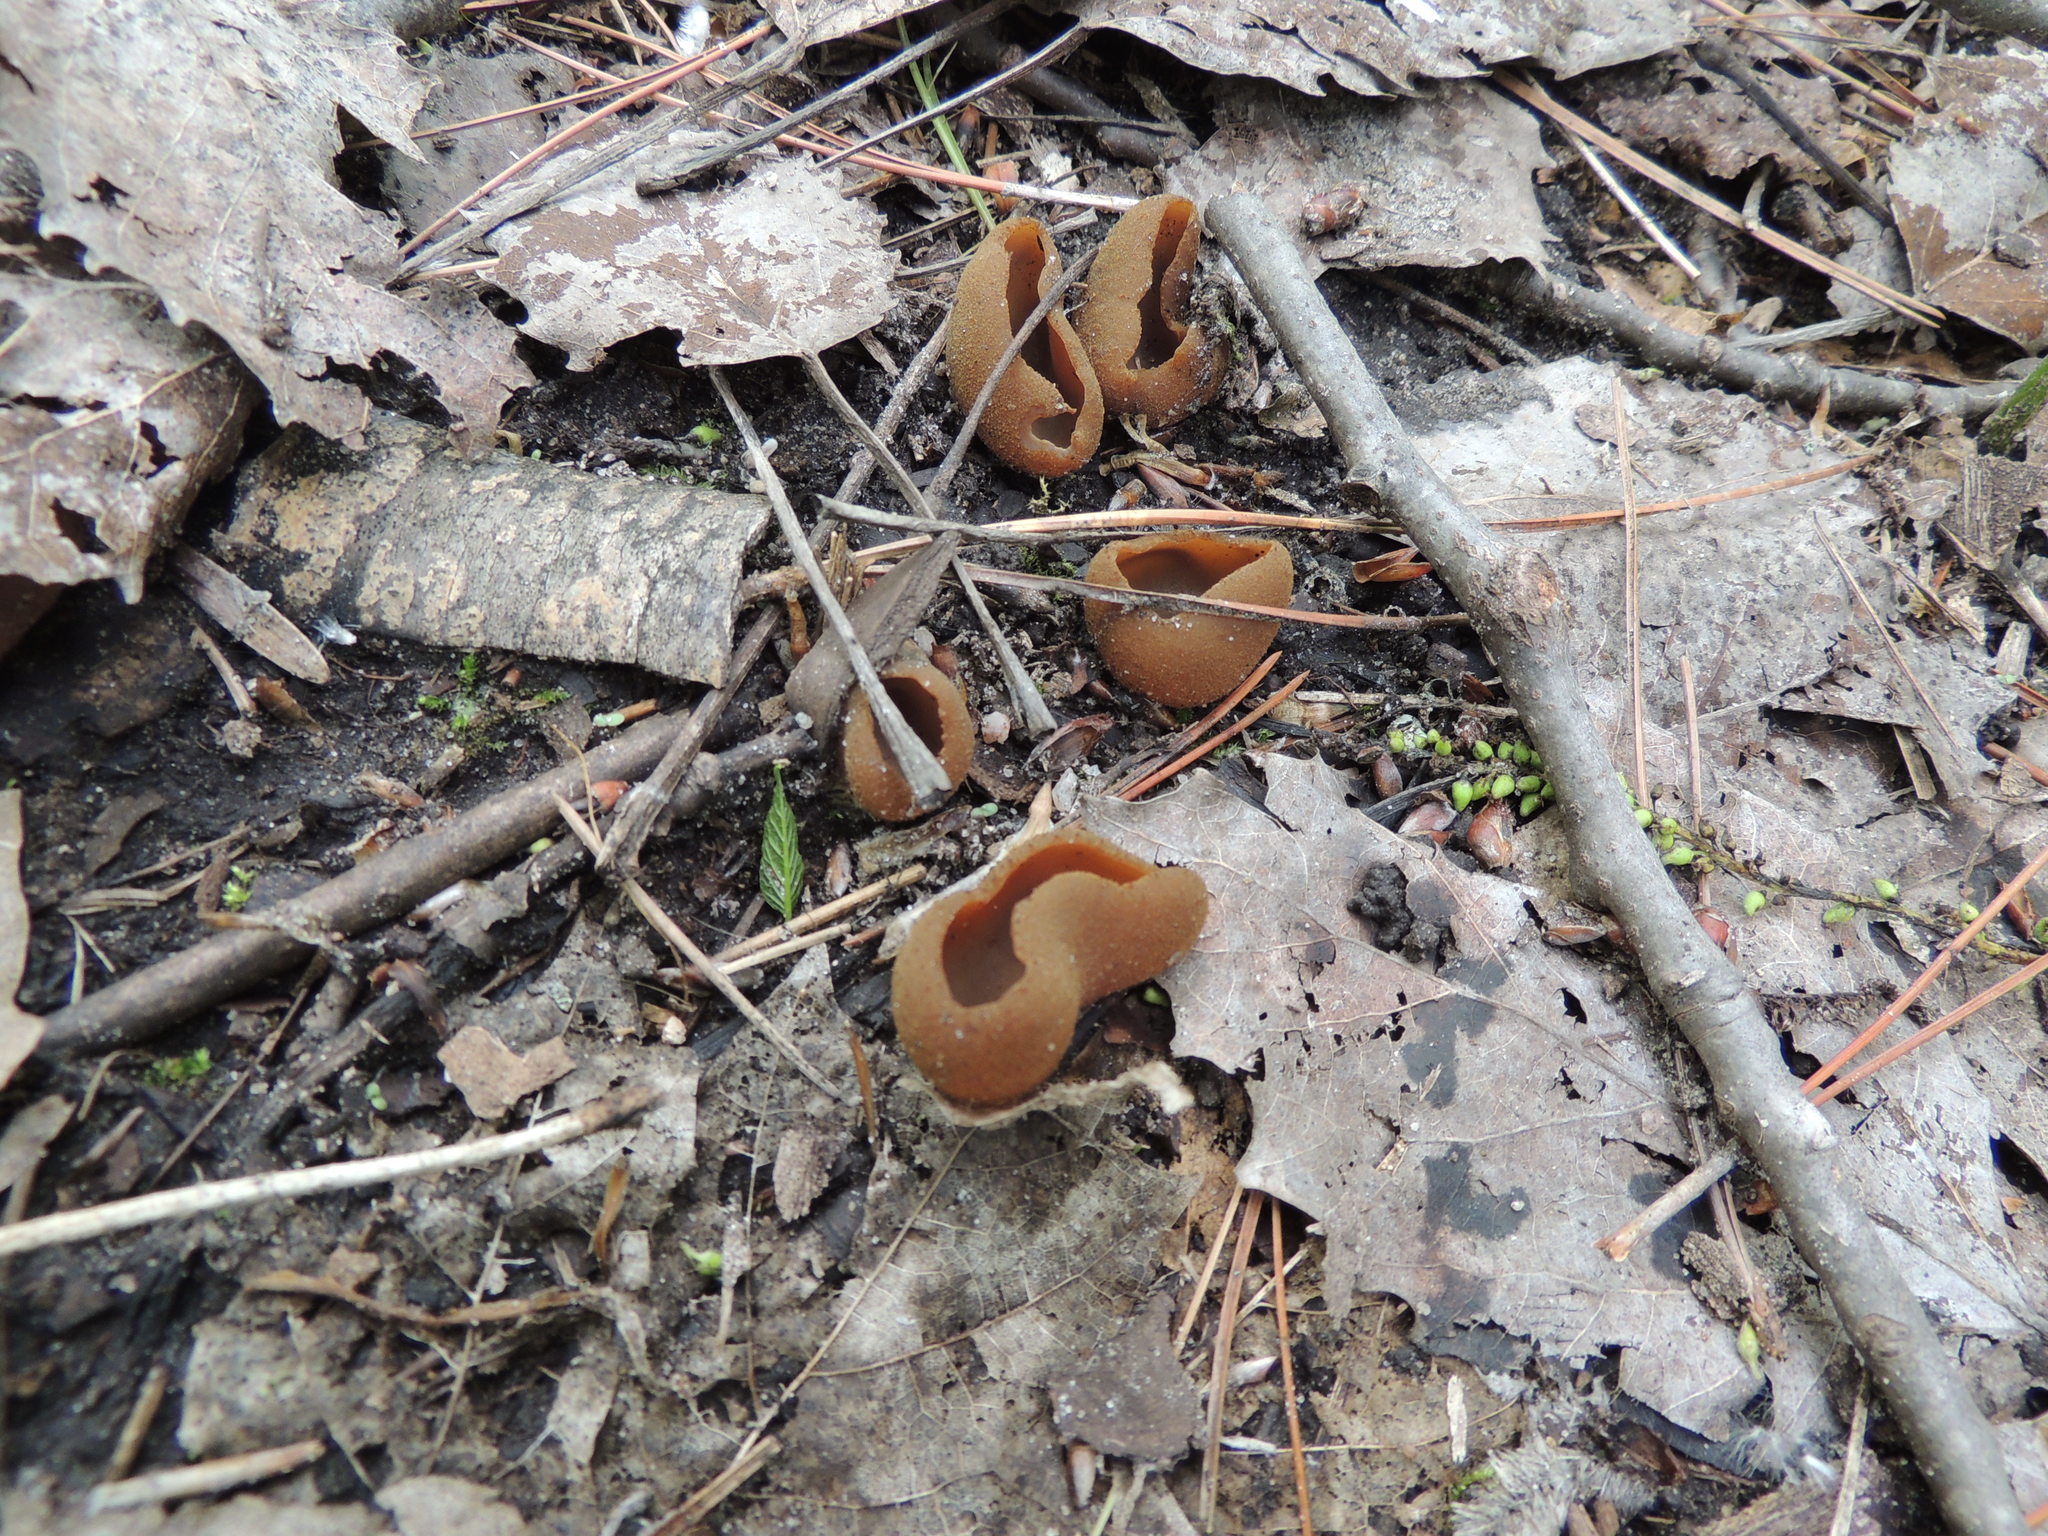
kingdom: Fungi
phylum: Ascomycota
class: Pezizomycetes
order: Pezizales
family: Pezizaceae
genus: Phylloscypha
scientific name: Phylloscypha phyllogena
